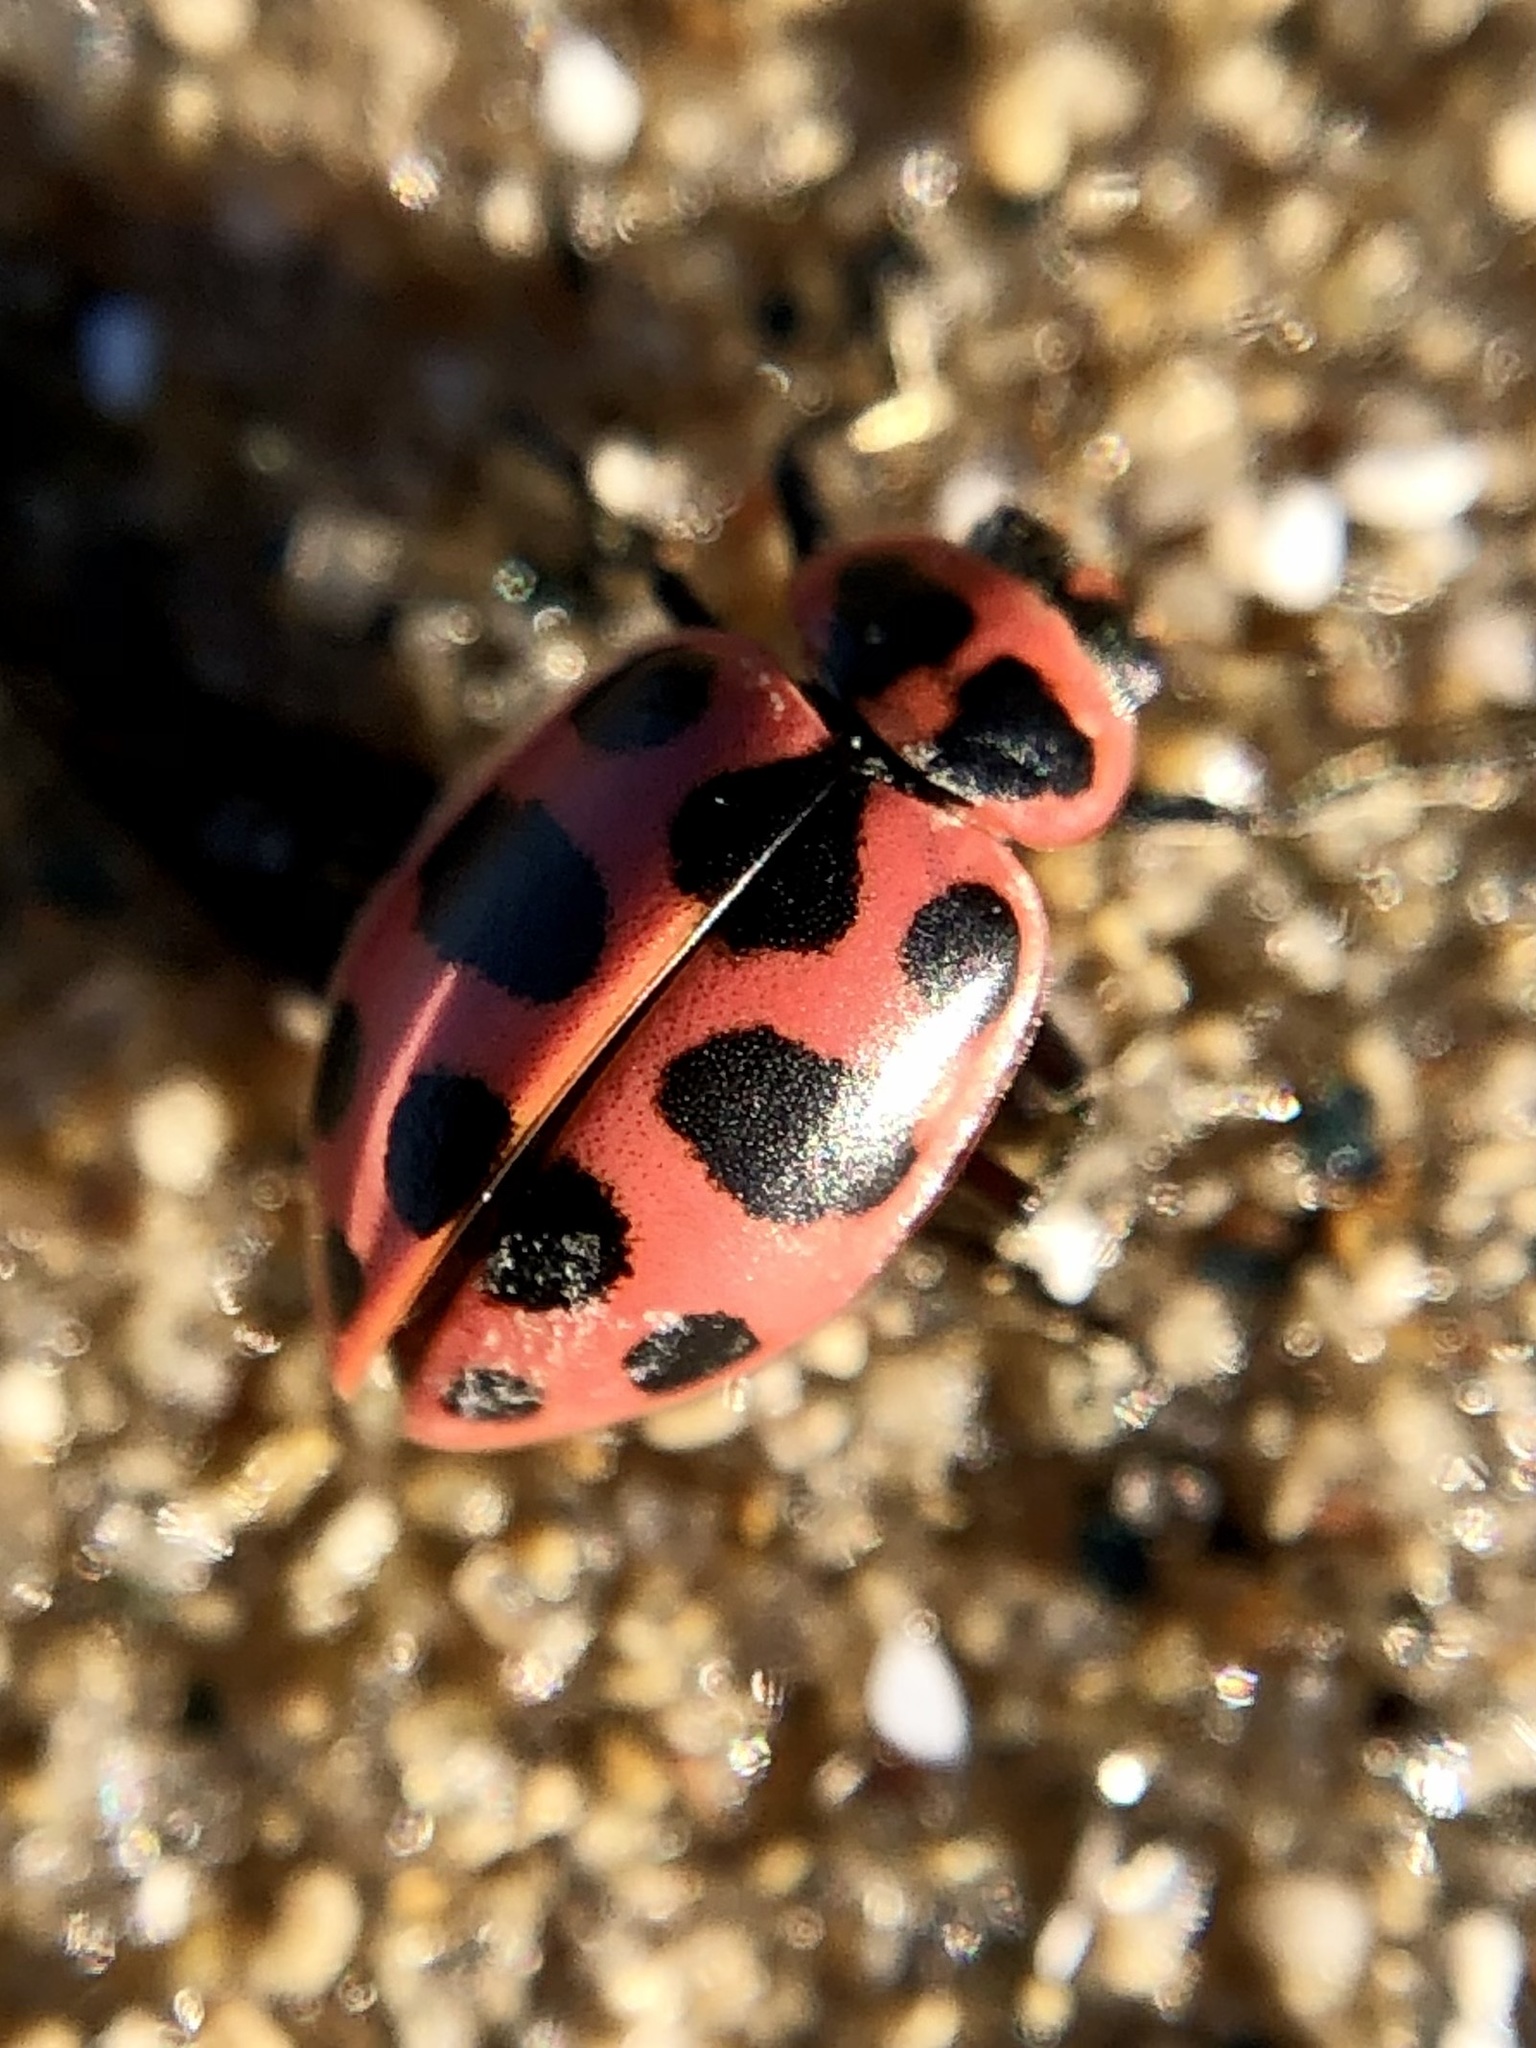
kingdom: Animalia
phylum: Arthropoda
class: Insecta
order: Coleoptera
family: Coccinellidae
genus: Coleomegilla
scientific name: Coleomegilla maculata
